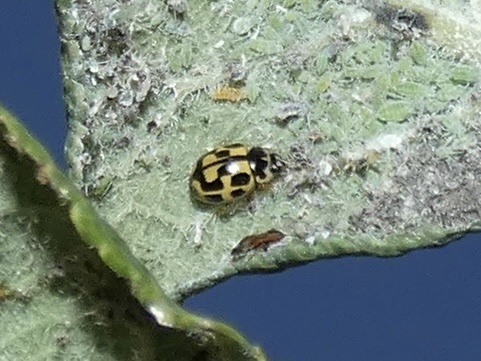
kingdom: Animalia
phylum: Arthropoda
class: Insecta
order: Coleoptera
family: Coccinellidae
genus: Propylaea
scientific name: Propylaea quatuordecimpunctata
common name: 14-spotted ladybird beetle
